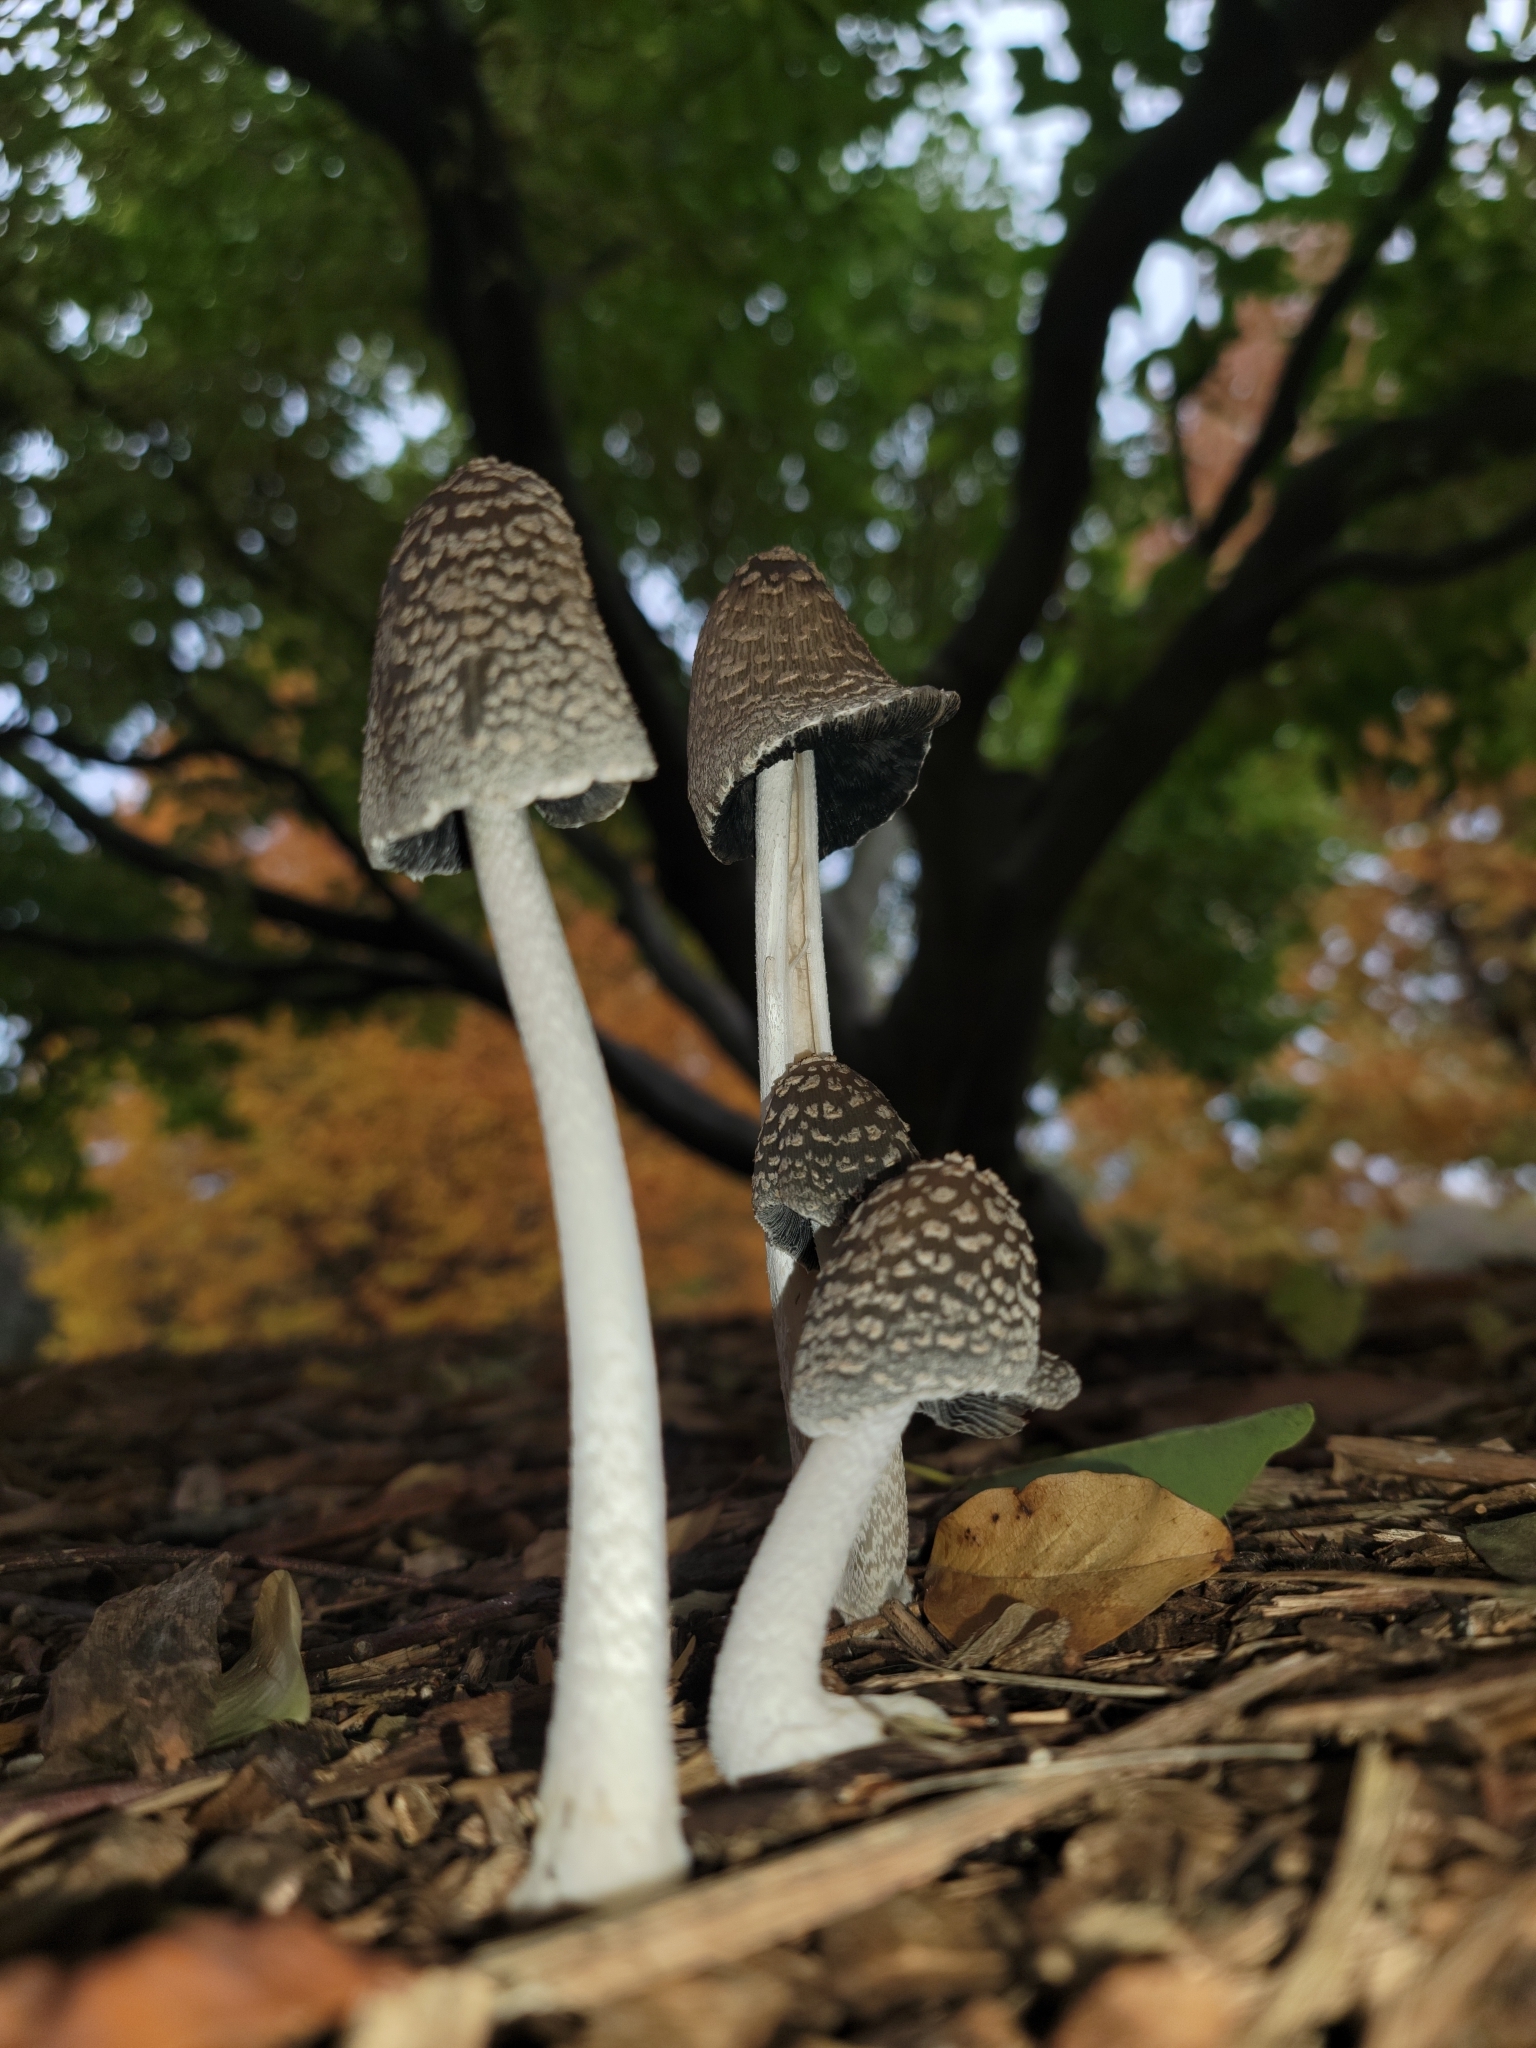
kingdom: Fungi
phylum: Basidiomycota
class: Agaricomycetes
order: Agaricales
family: Psathyrellaceae
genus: Coprinopsis
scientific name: Coprinopsis picacea
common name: Magpie inkcap
